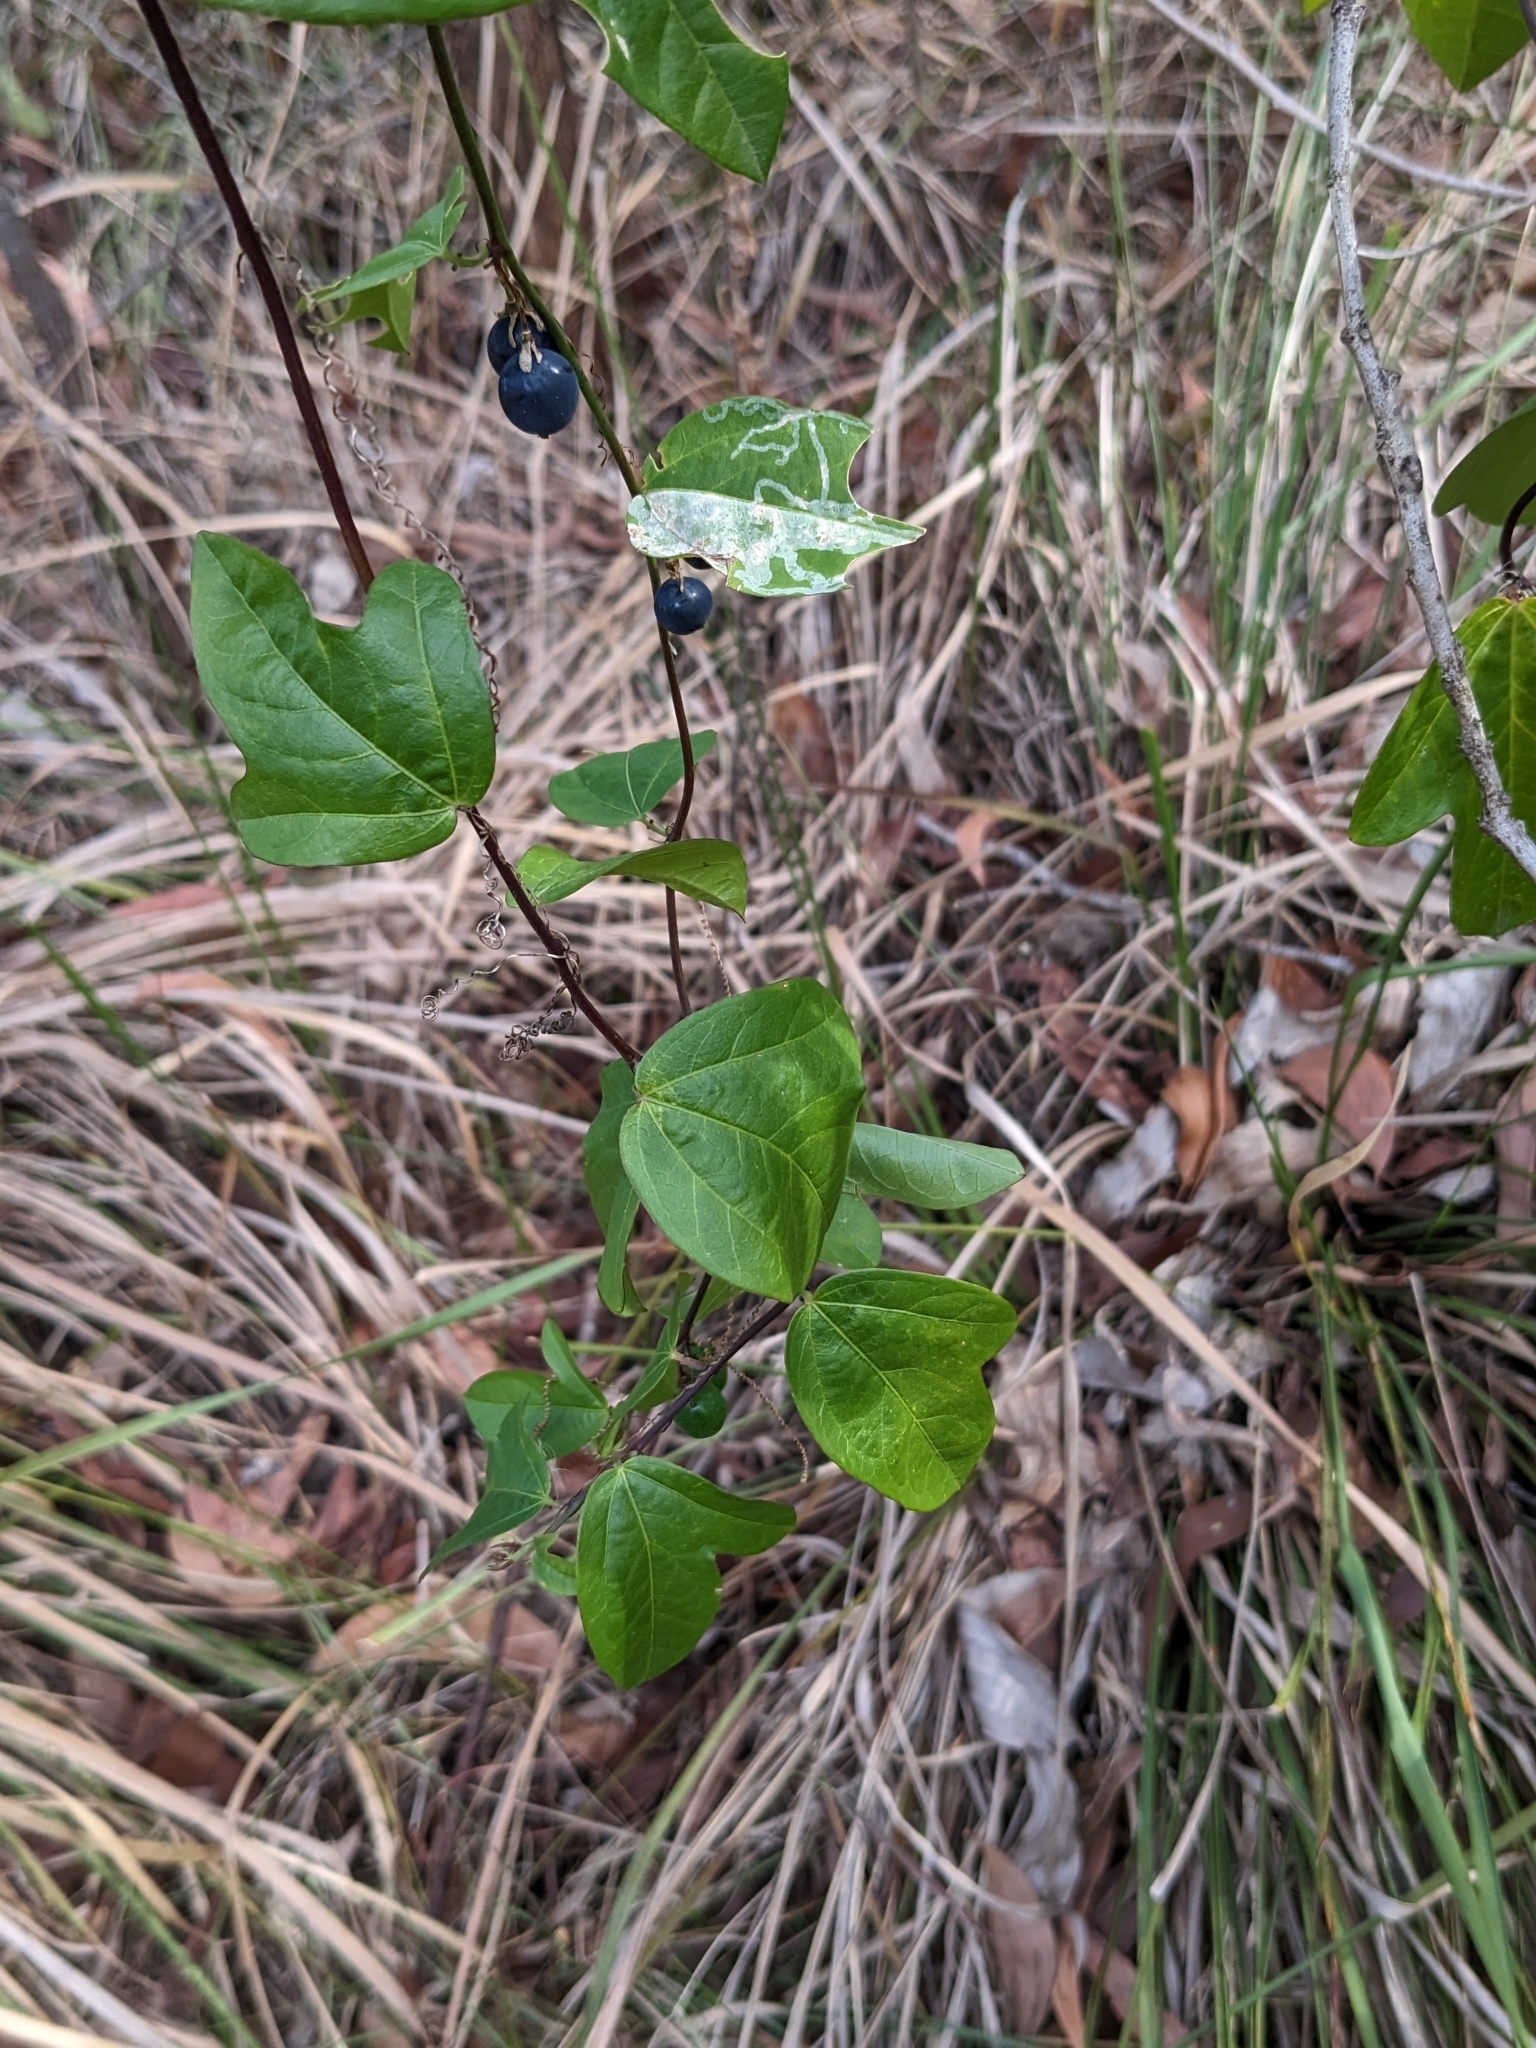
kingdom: Plantae
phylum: Tracheophyta
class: Magnoliopsida
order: Malpighiales
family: Passifloraceae
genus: Passiflora
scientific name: Passiflora pallida
